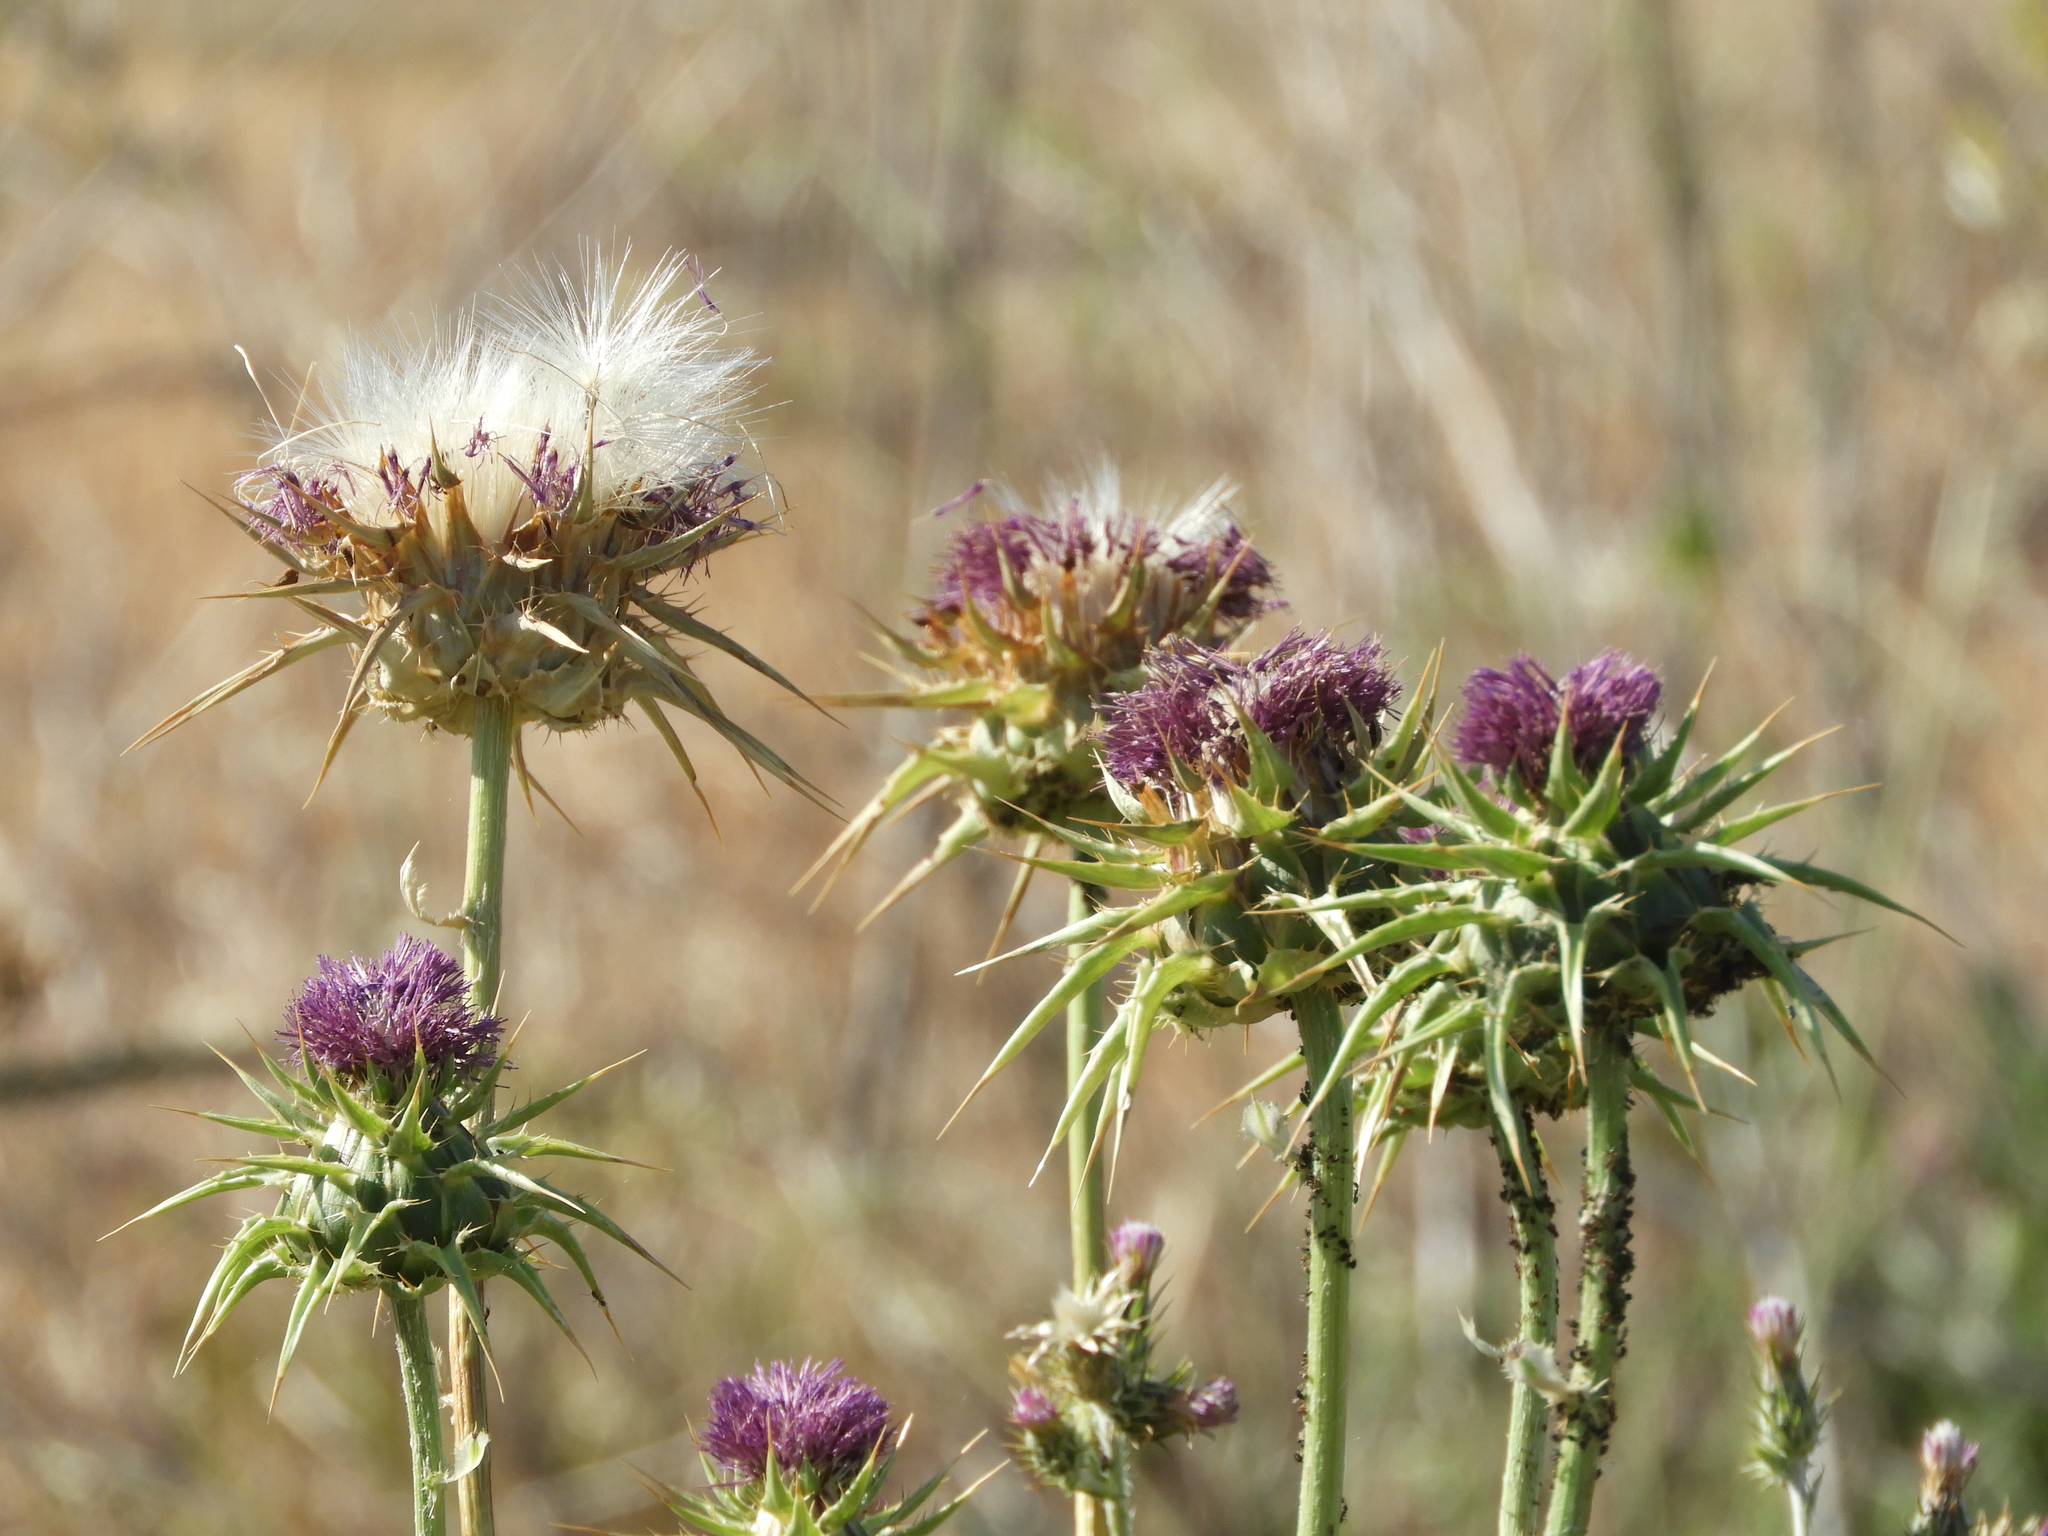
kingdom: Plantae
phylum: Tracheophyta
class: Magnoliopsida
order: Asterales
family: Asteraceae
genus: Silybum
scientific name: Silybum marianum
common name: Milk thistle
